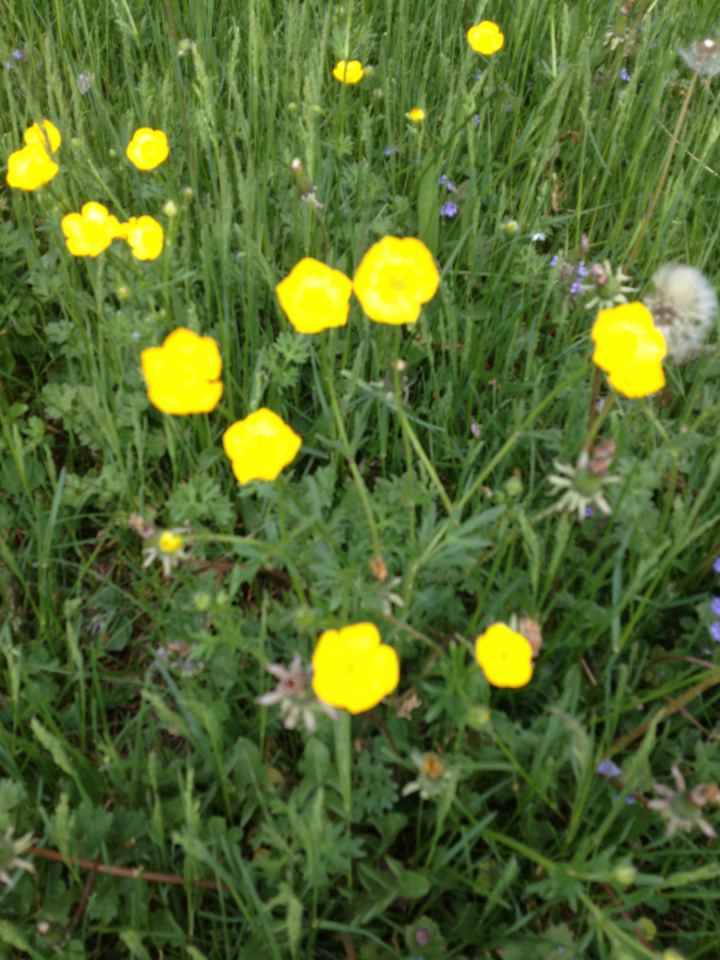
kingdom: Plantae
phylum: Tracheophyta
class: Magnoliopsida
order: Ranunculales
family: Ranunculaceae
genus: Ranunculus
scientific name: Ranunculus acris
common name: Meadow buttercup
